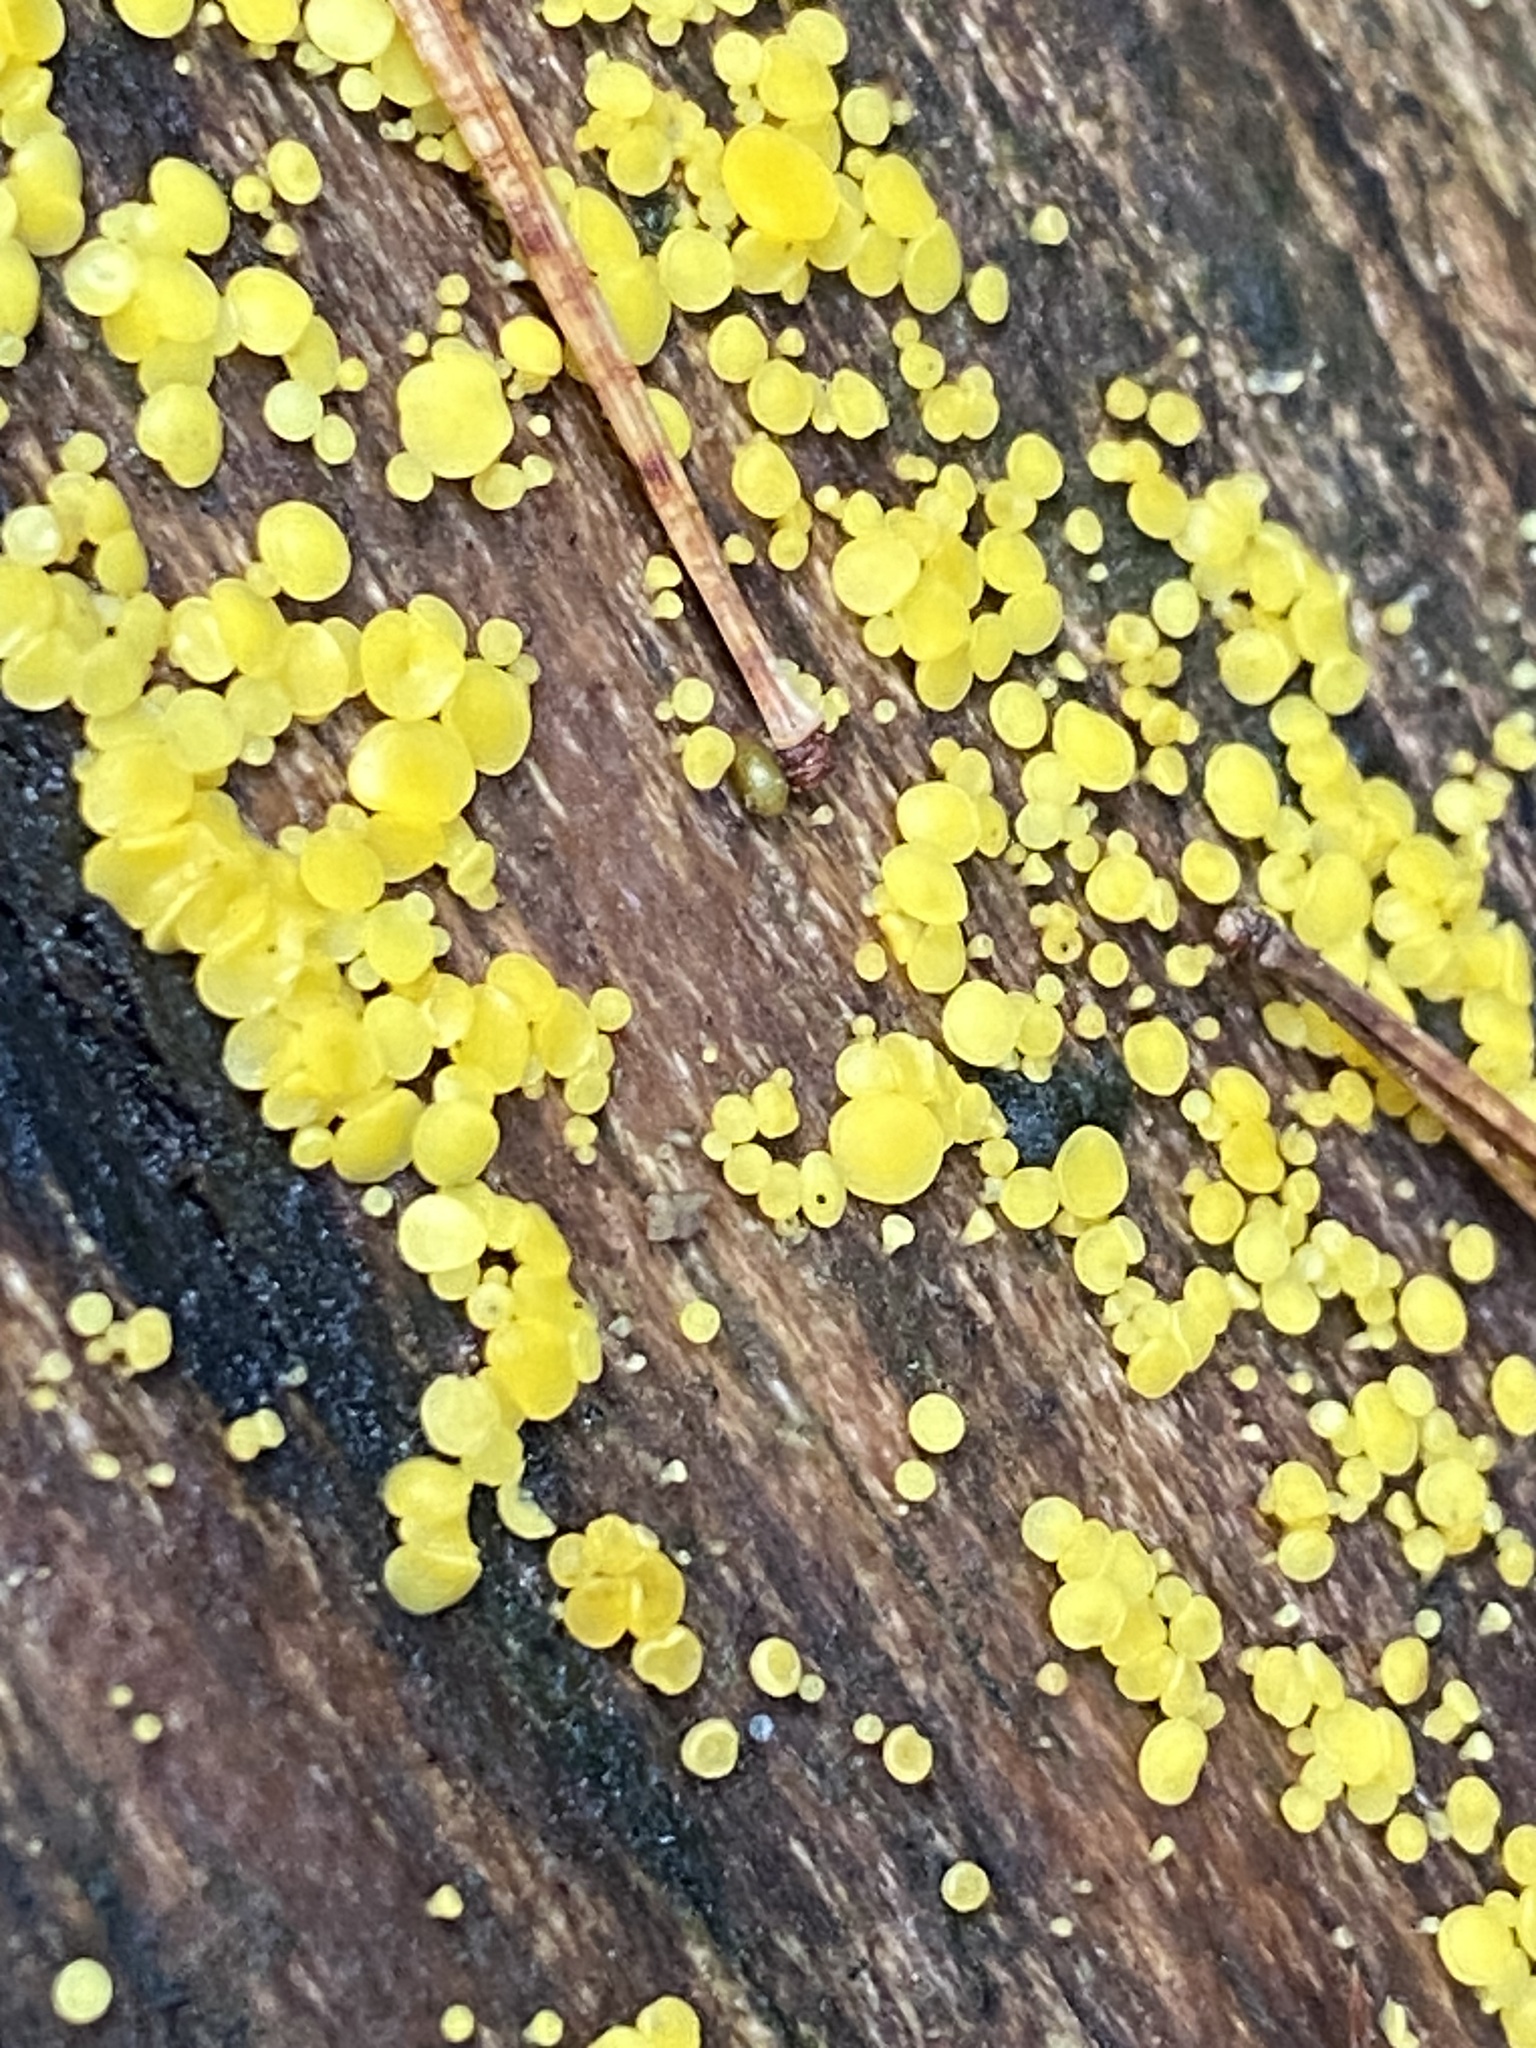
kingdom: Fungi
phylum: Ascomycota
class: Leotiomycetes
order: Helotiales
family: Pezizellaceae
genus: Calycina
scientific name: Calycina citrina
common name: Yellow fairy cups
